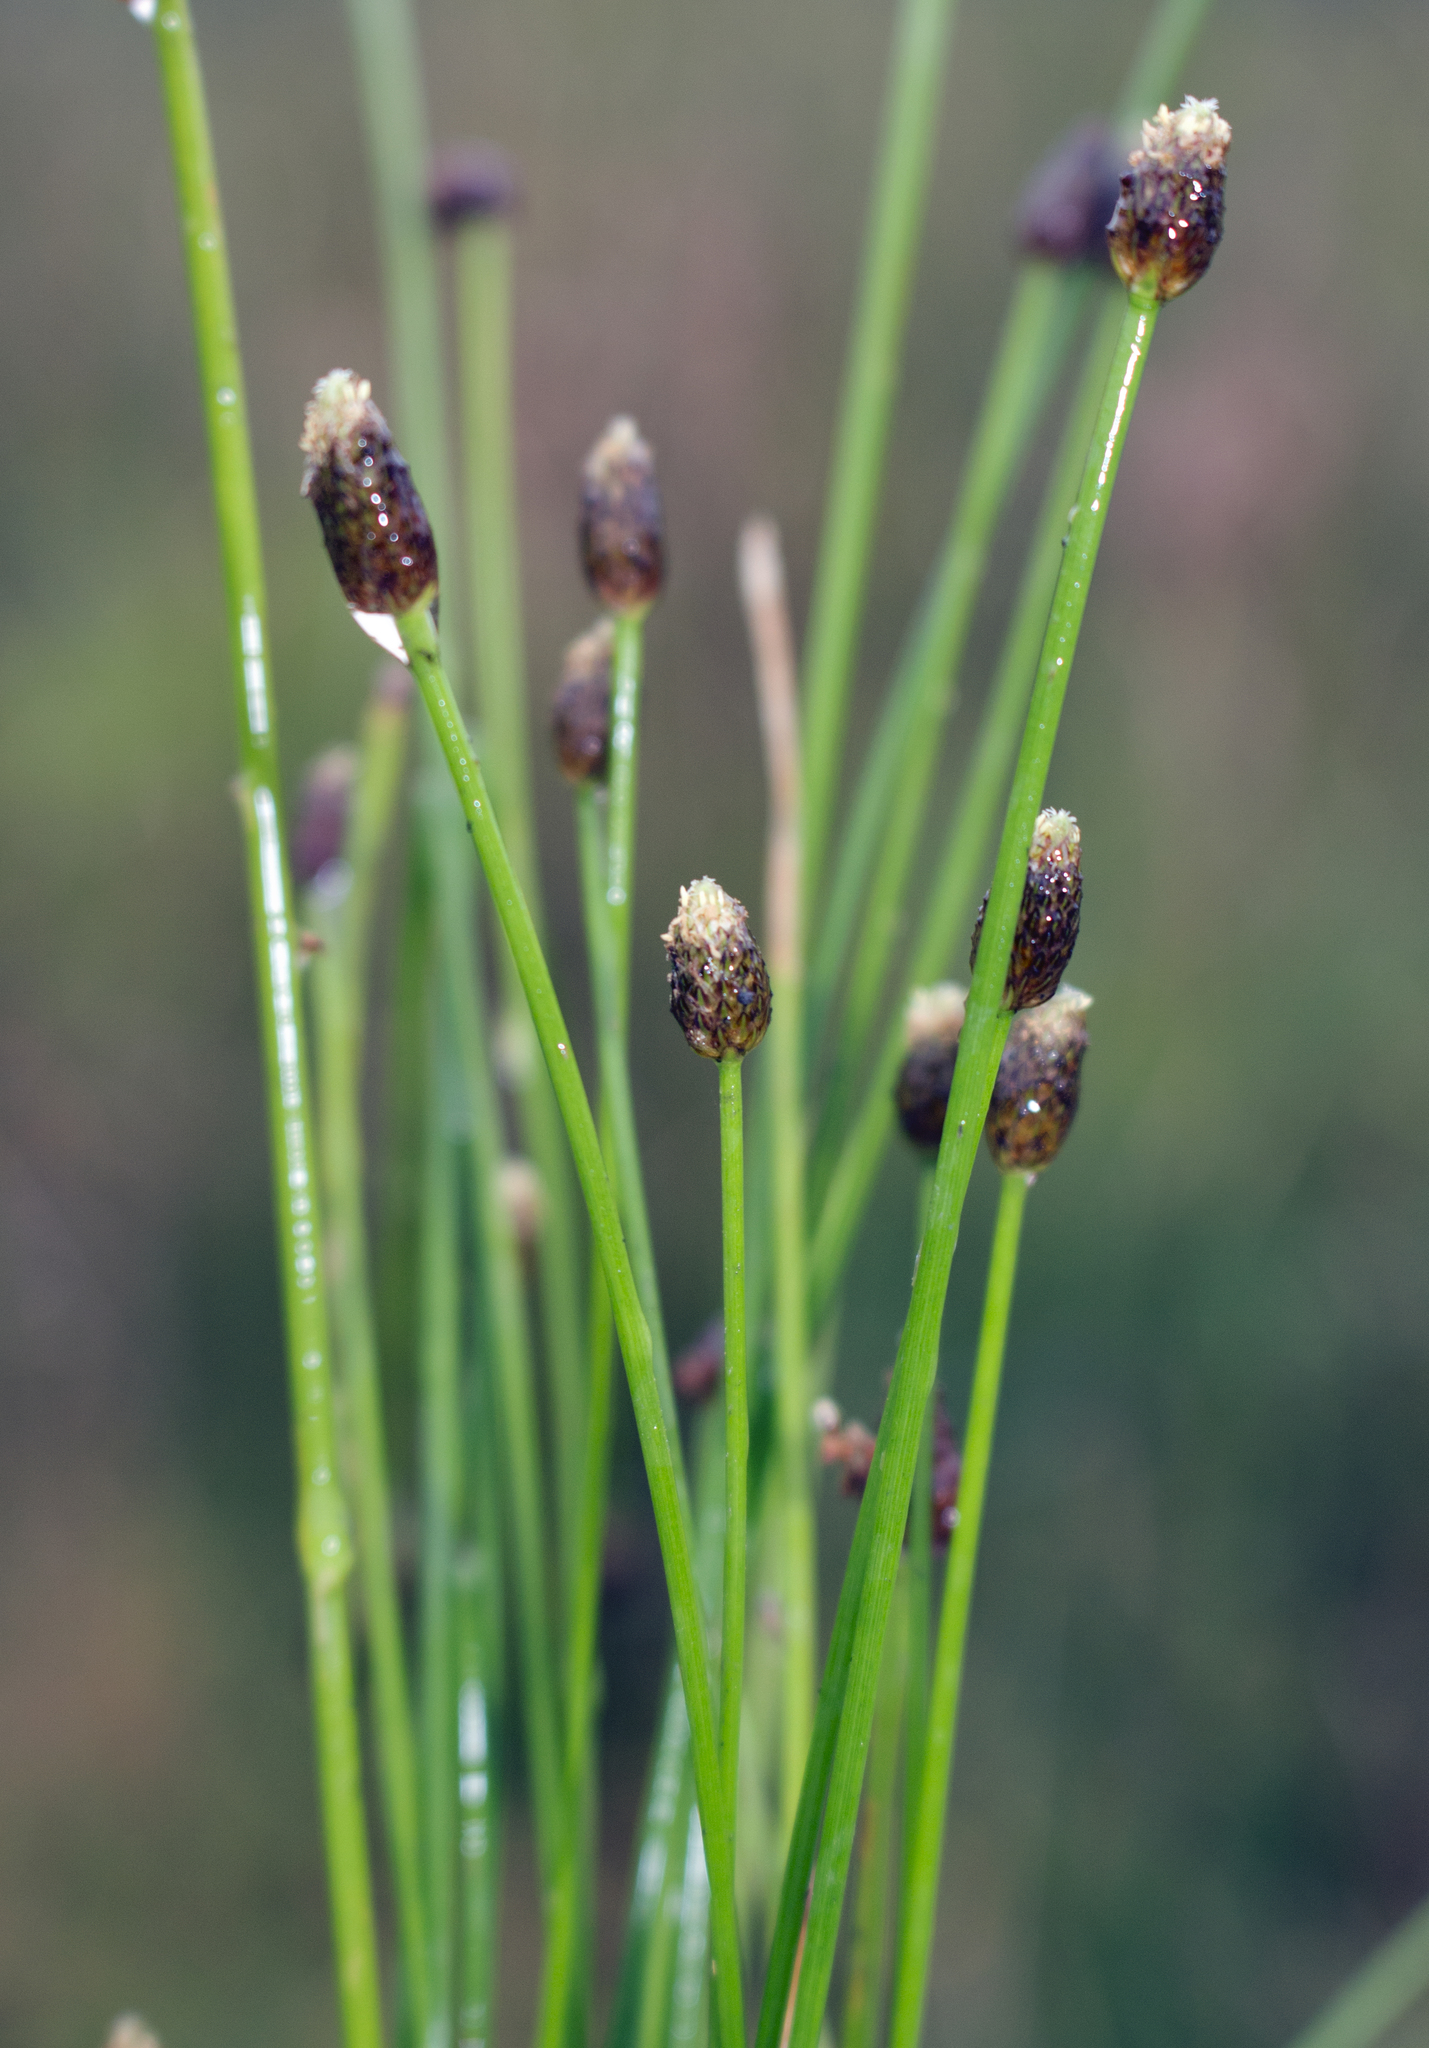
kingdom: Plantae
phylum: Tracheophyta
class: Liliopsida
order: Poales
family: Cyperaceae
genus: Eleocharis
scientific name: Eleocharis obtusa
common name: Blunt spikerush
